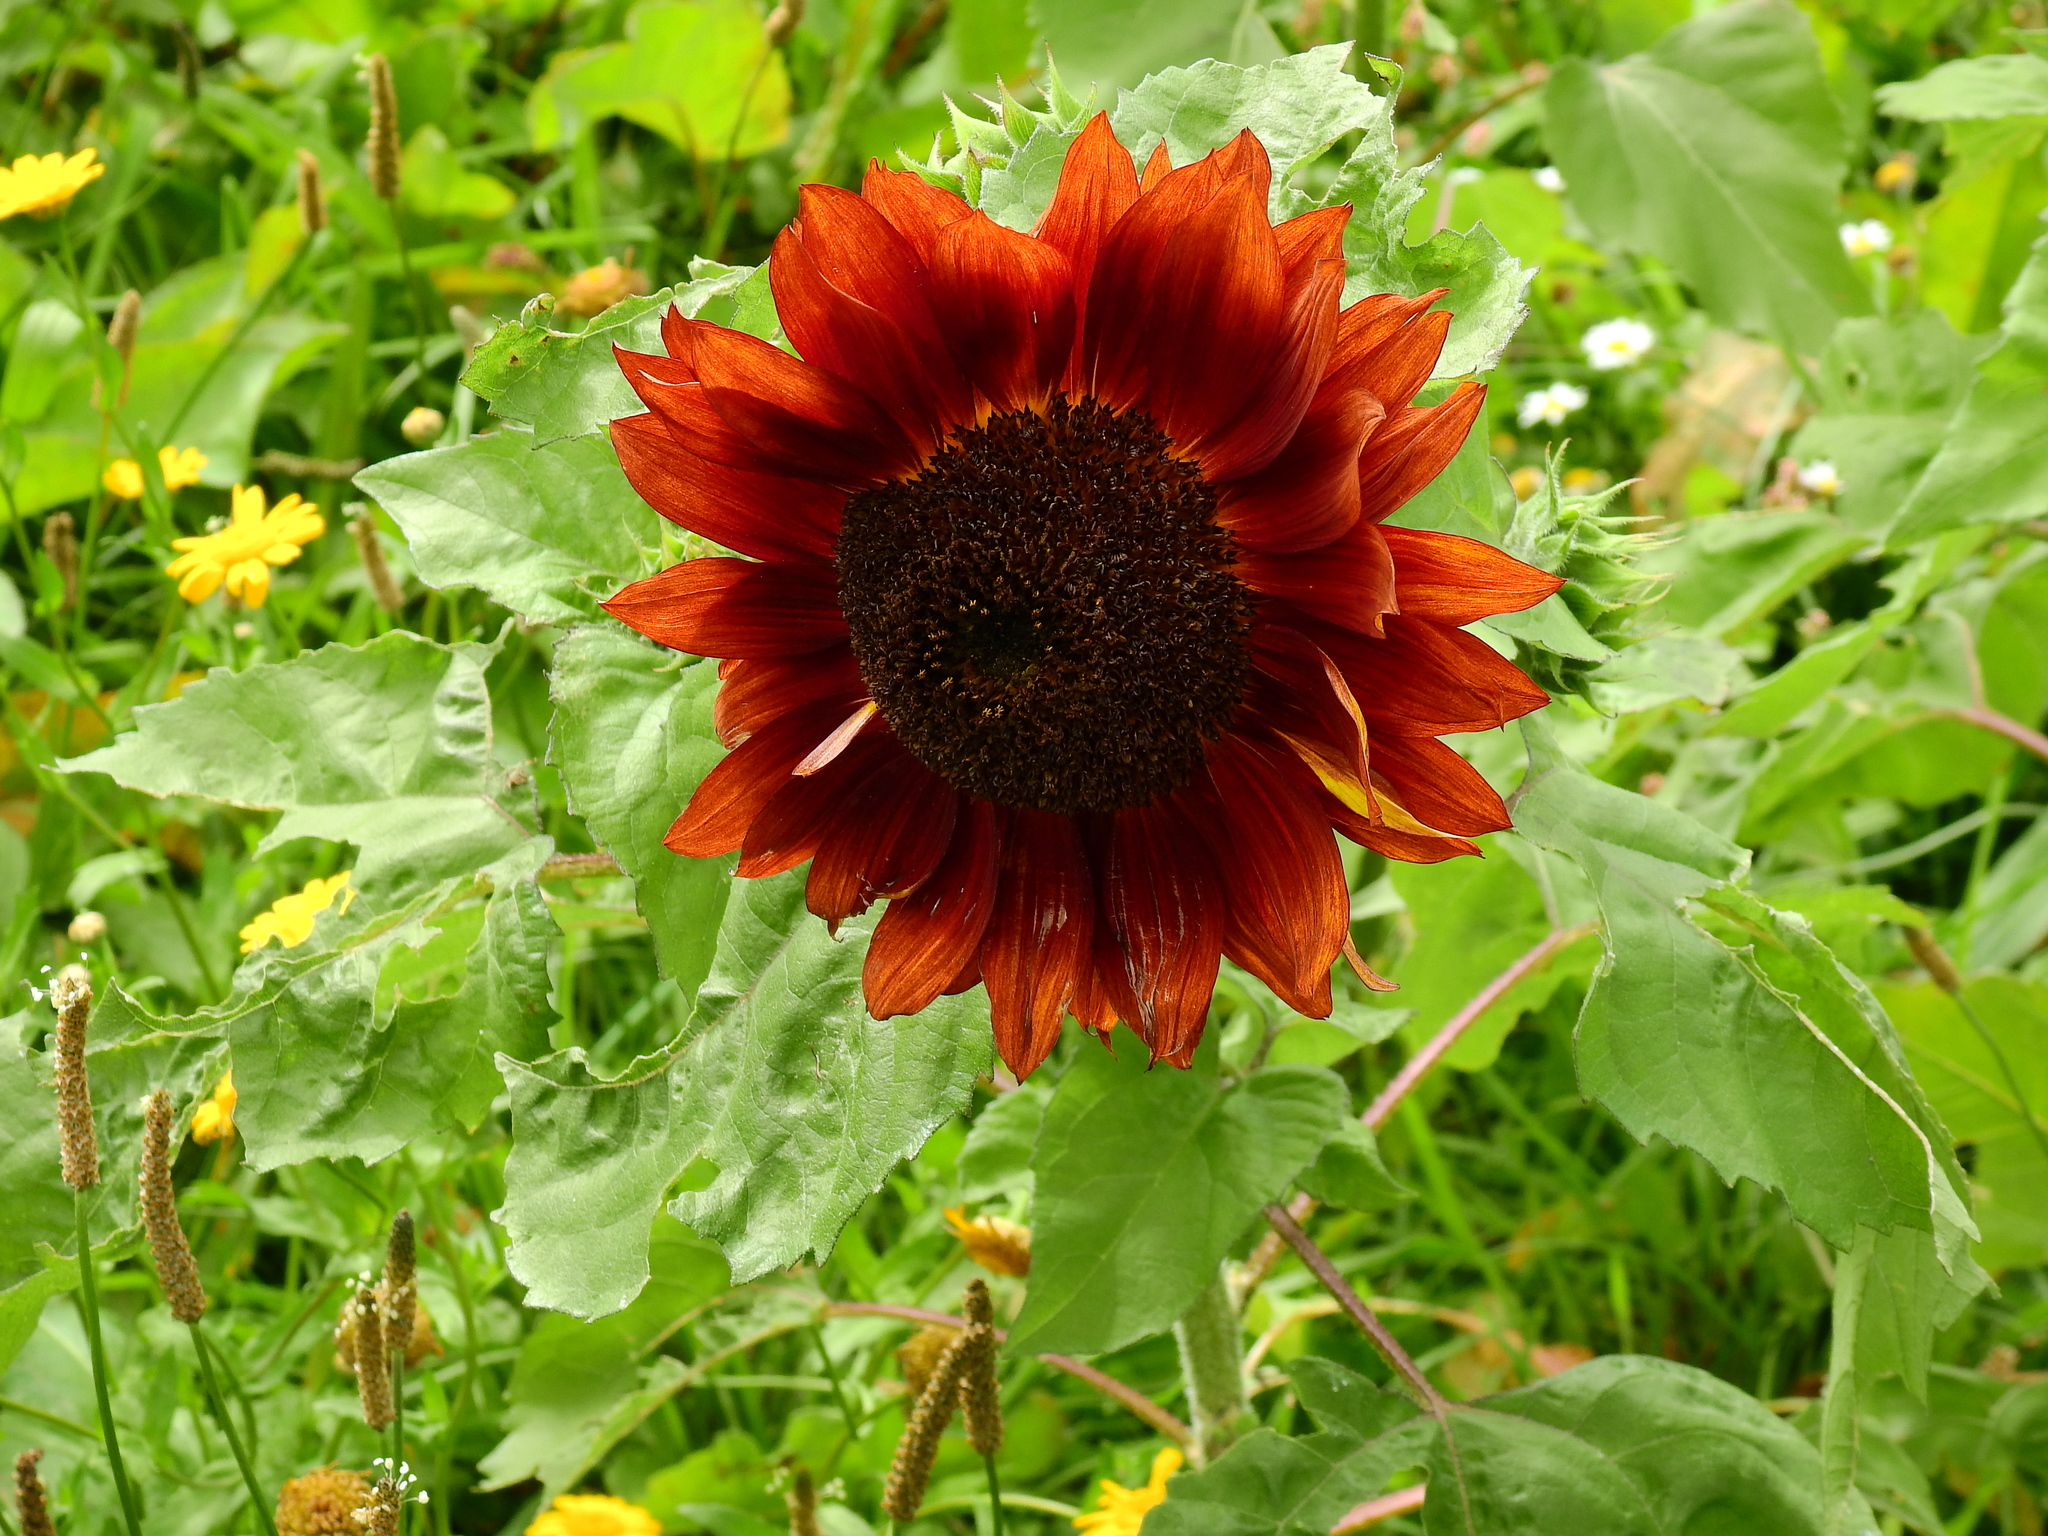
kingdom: Plantae
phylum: Tracheophyta
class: Magnoliopsida
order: Asterales
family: Asteraceae
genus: Helianthus
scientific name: Helianthus annuus
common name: Sunflower
